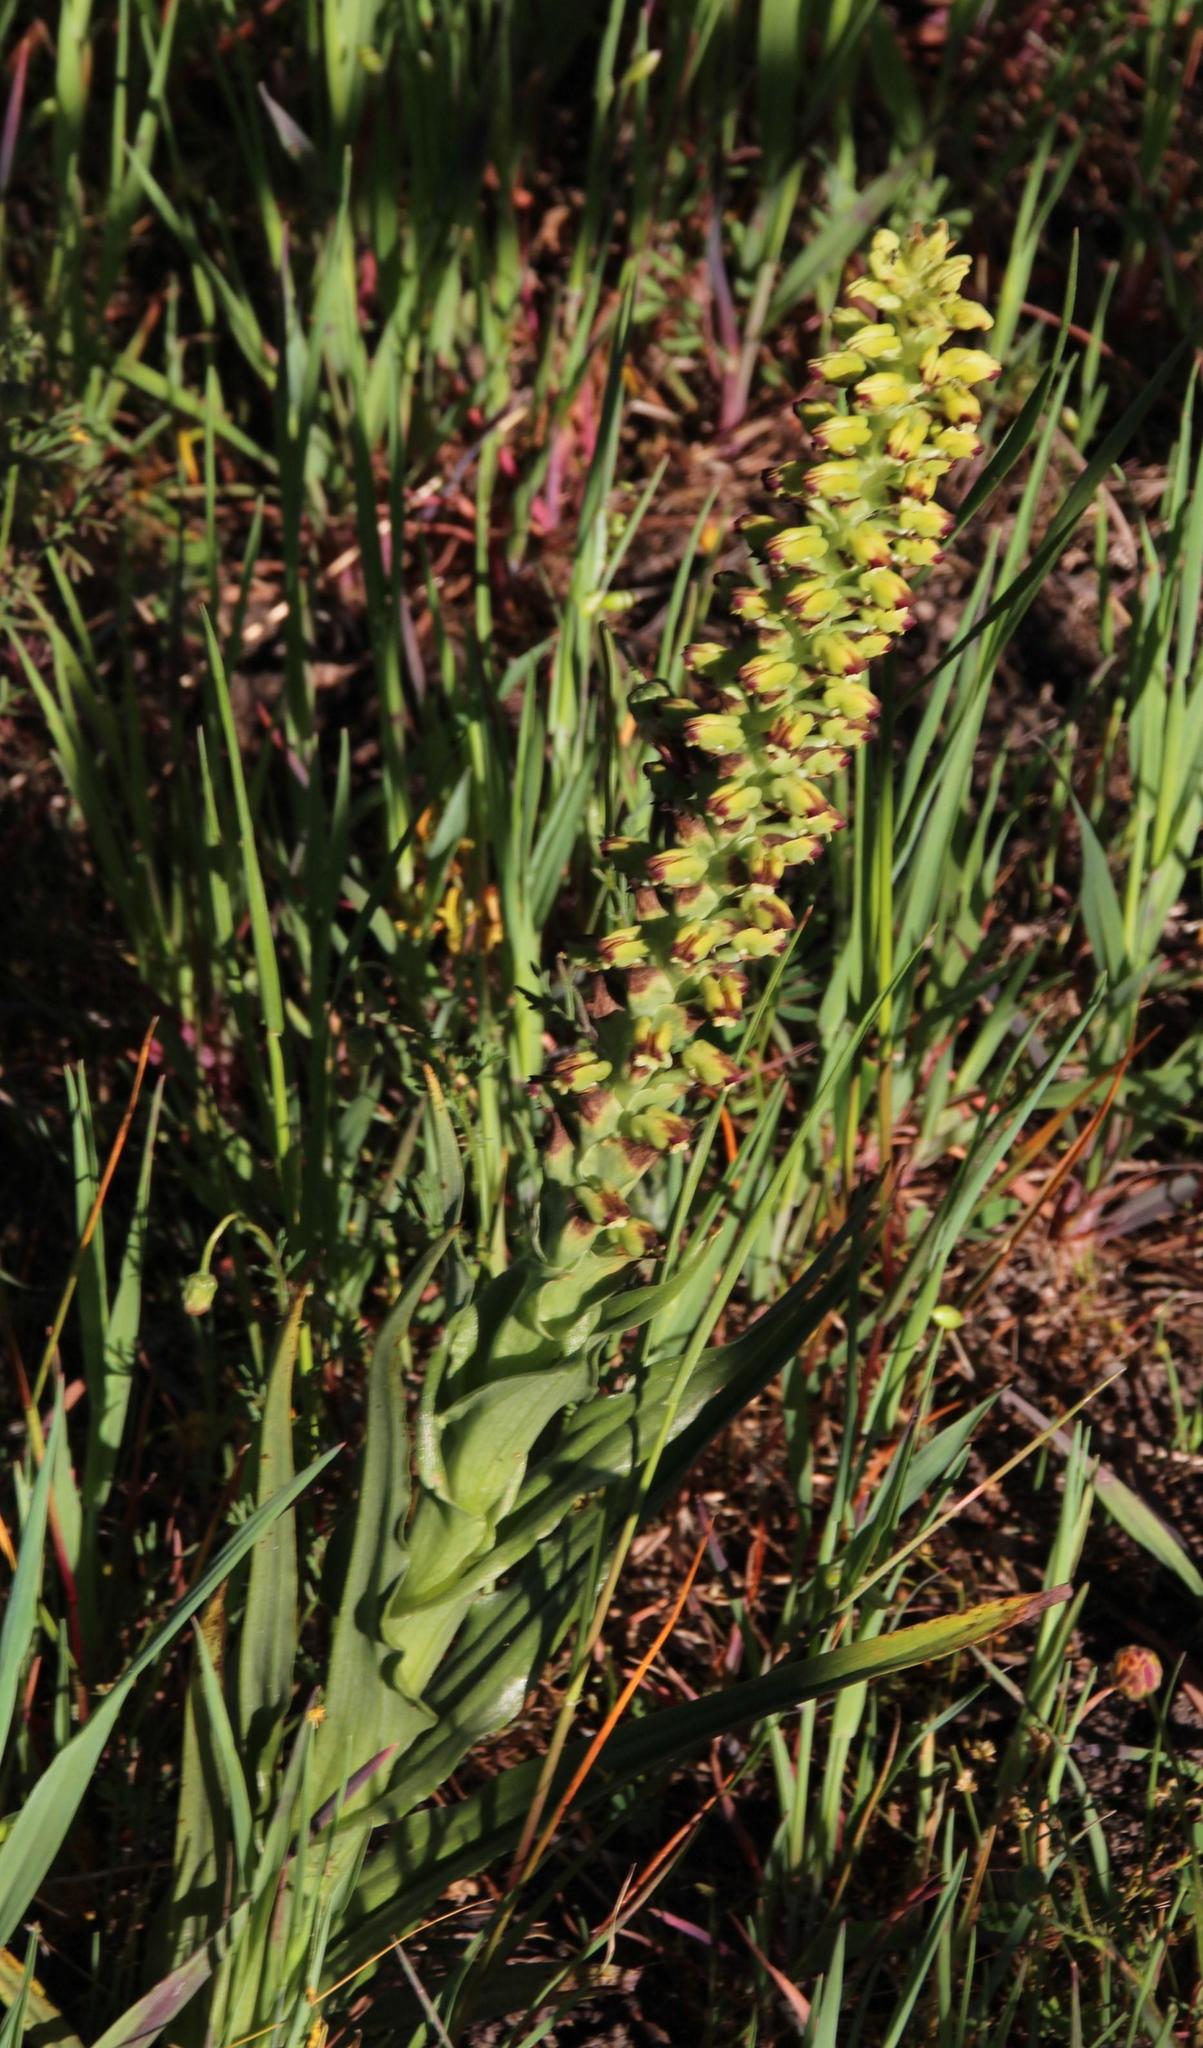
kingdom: Plantae
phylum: Tracheophyta
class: Liliopsida
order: Asparagales
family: Orchidaceae
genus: Corycium
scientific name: Corycium orobanchoides
